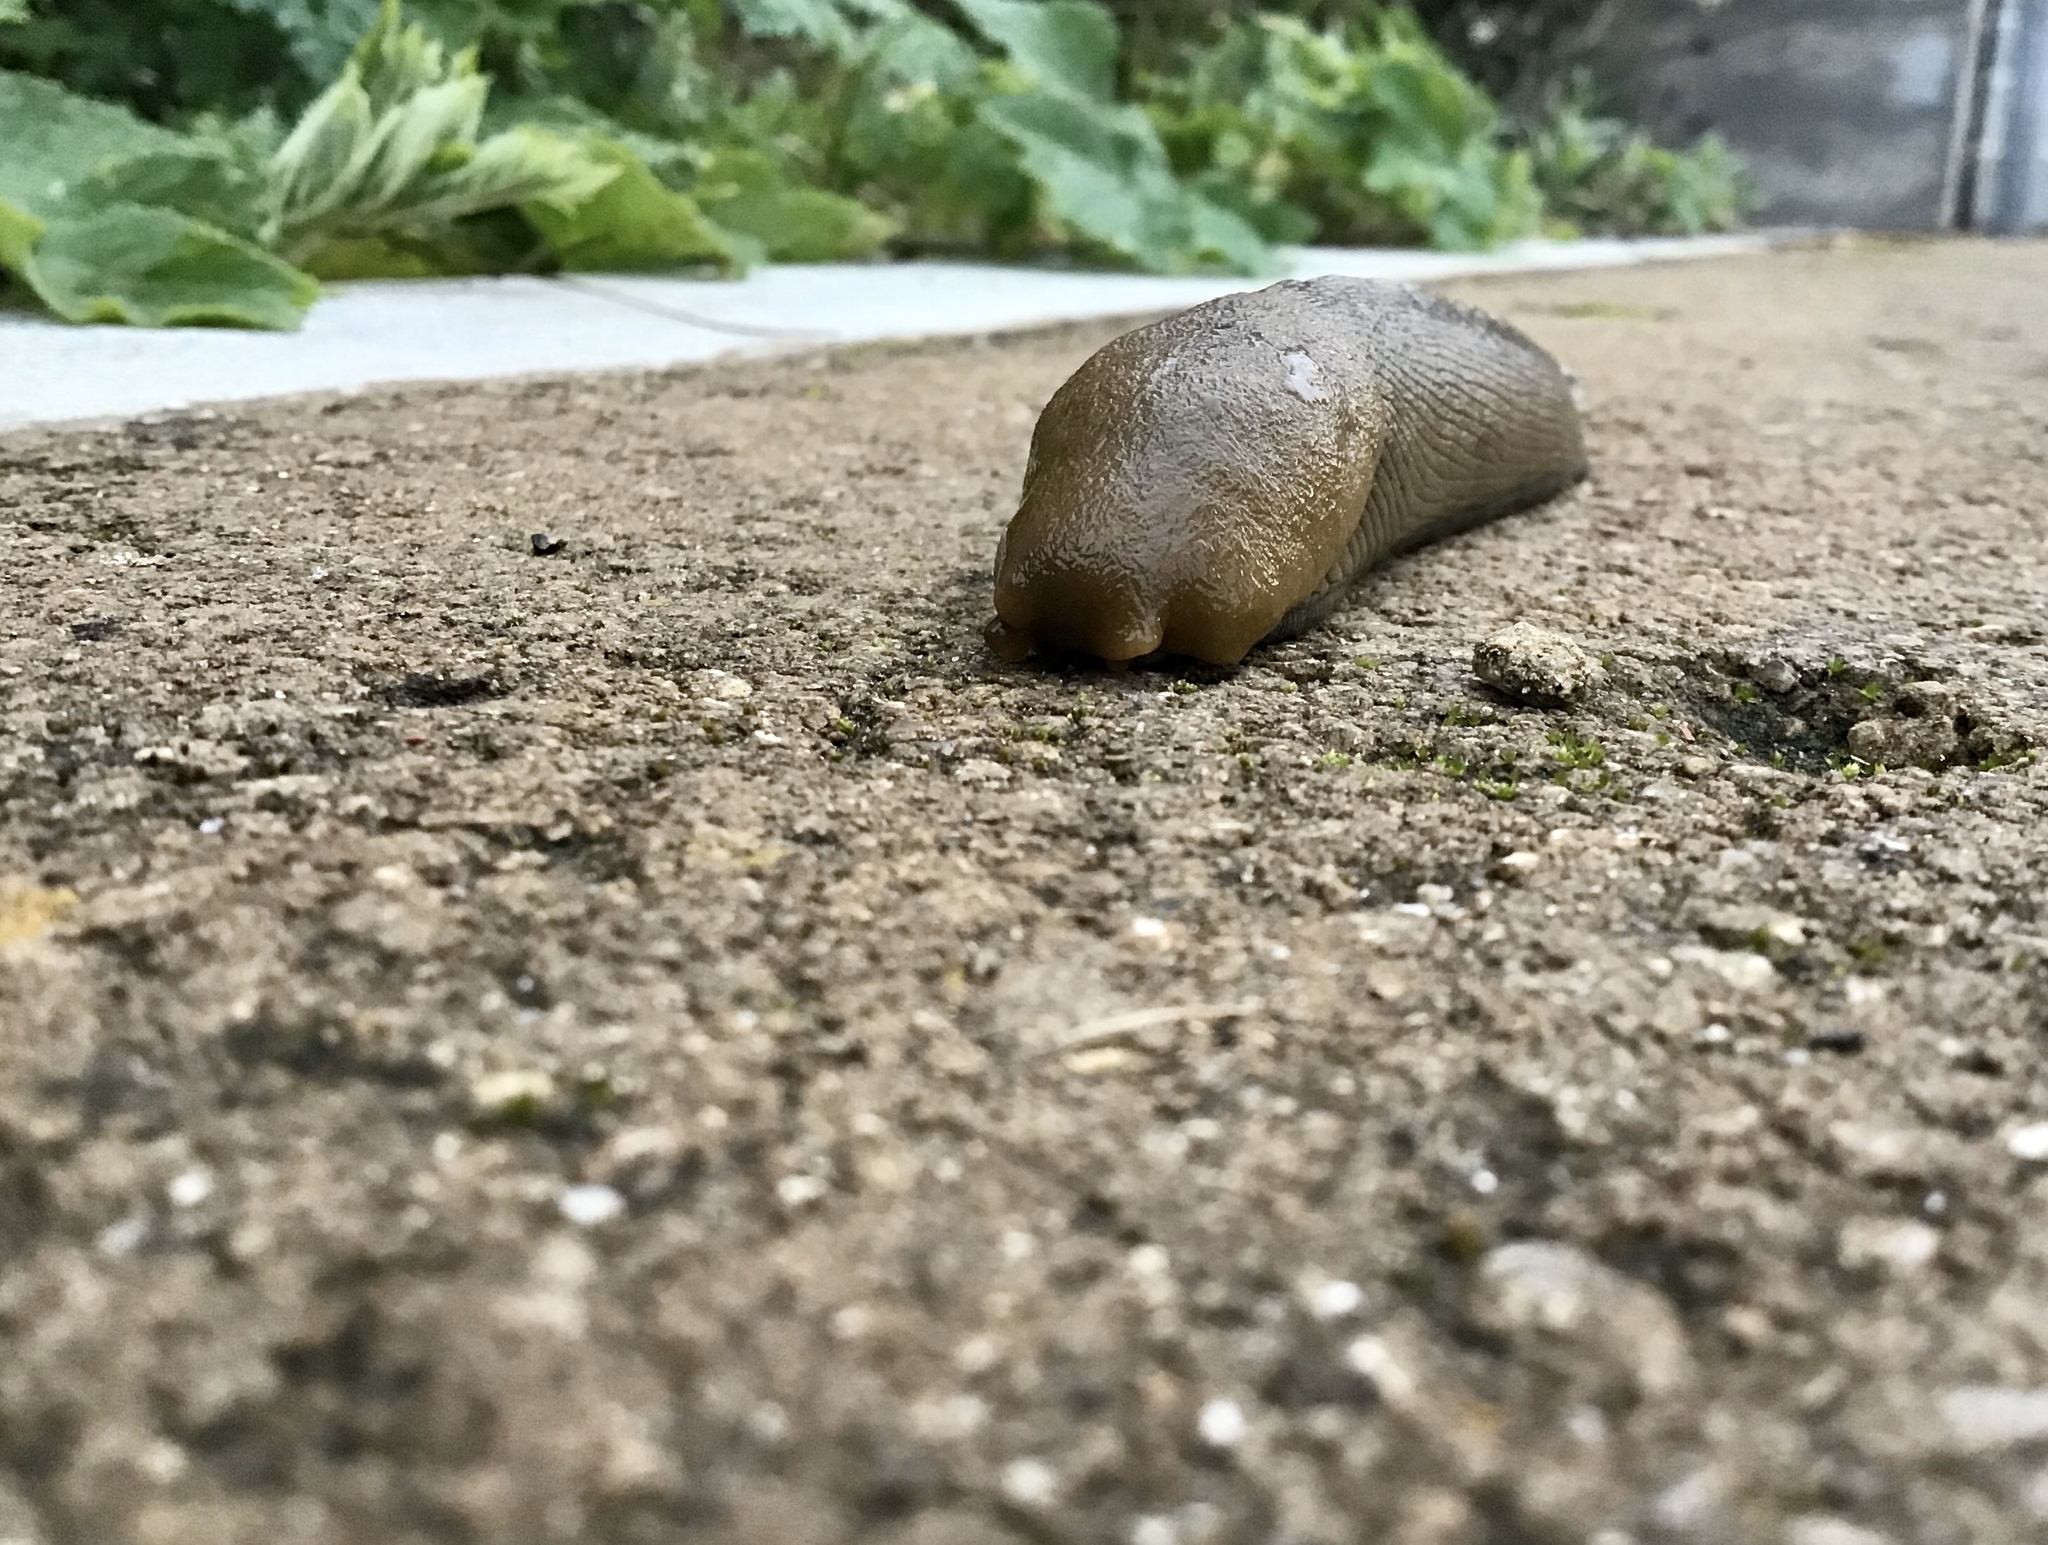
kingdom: Animalia
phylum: Mollusca
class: Gastropoda
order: Stylommatophora
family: Ariolimacidae
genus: Ariolimax
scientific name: Ariolimax buttoni
